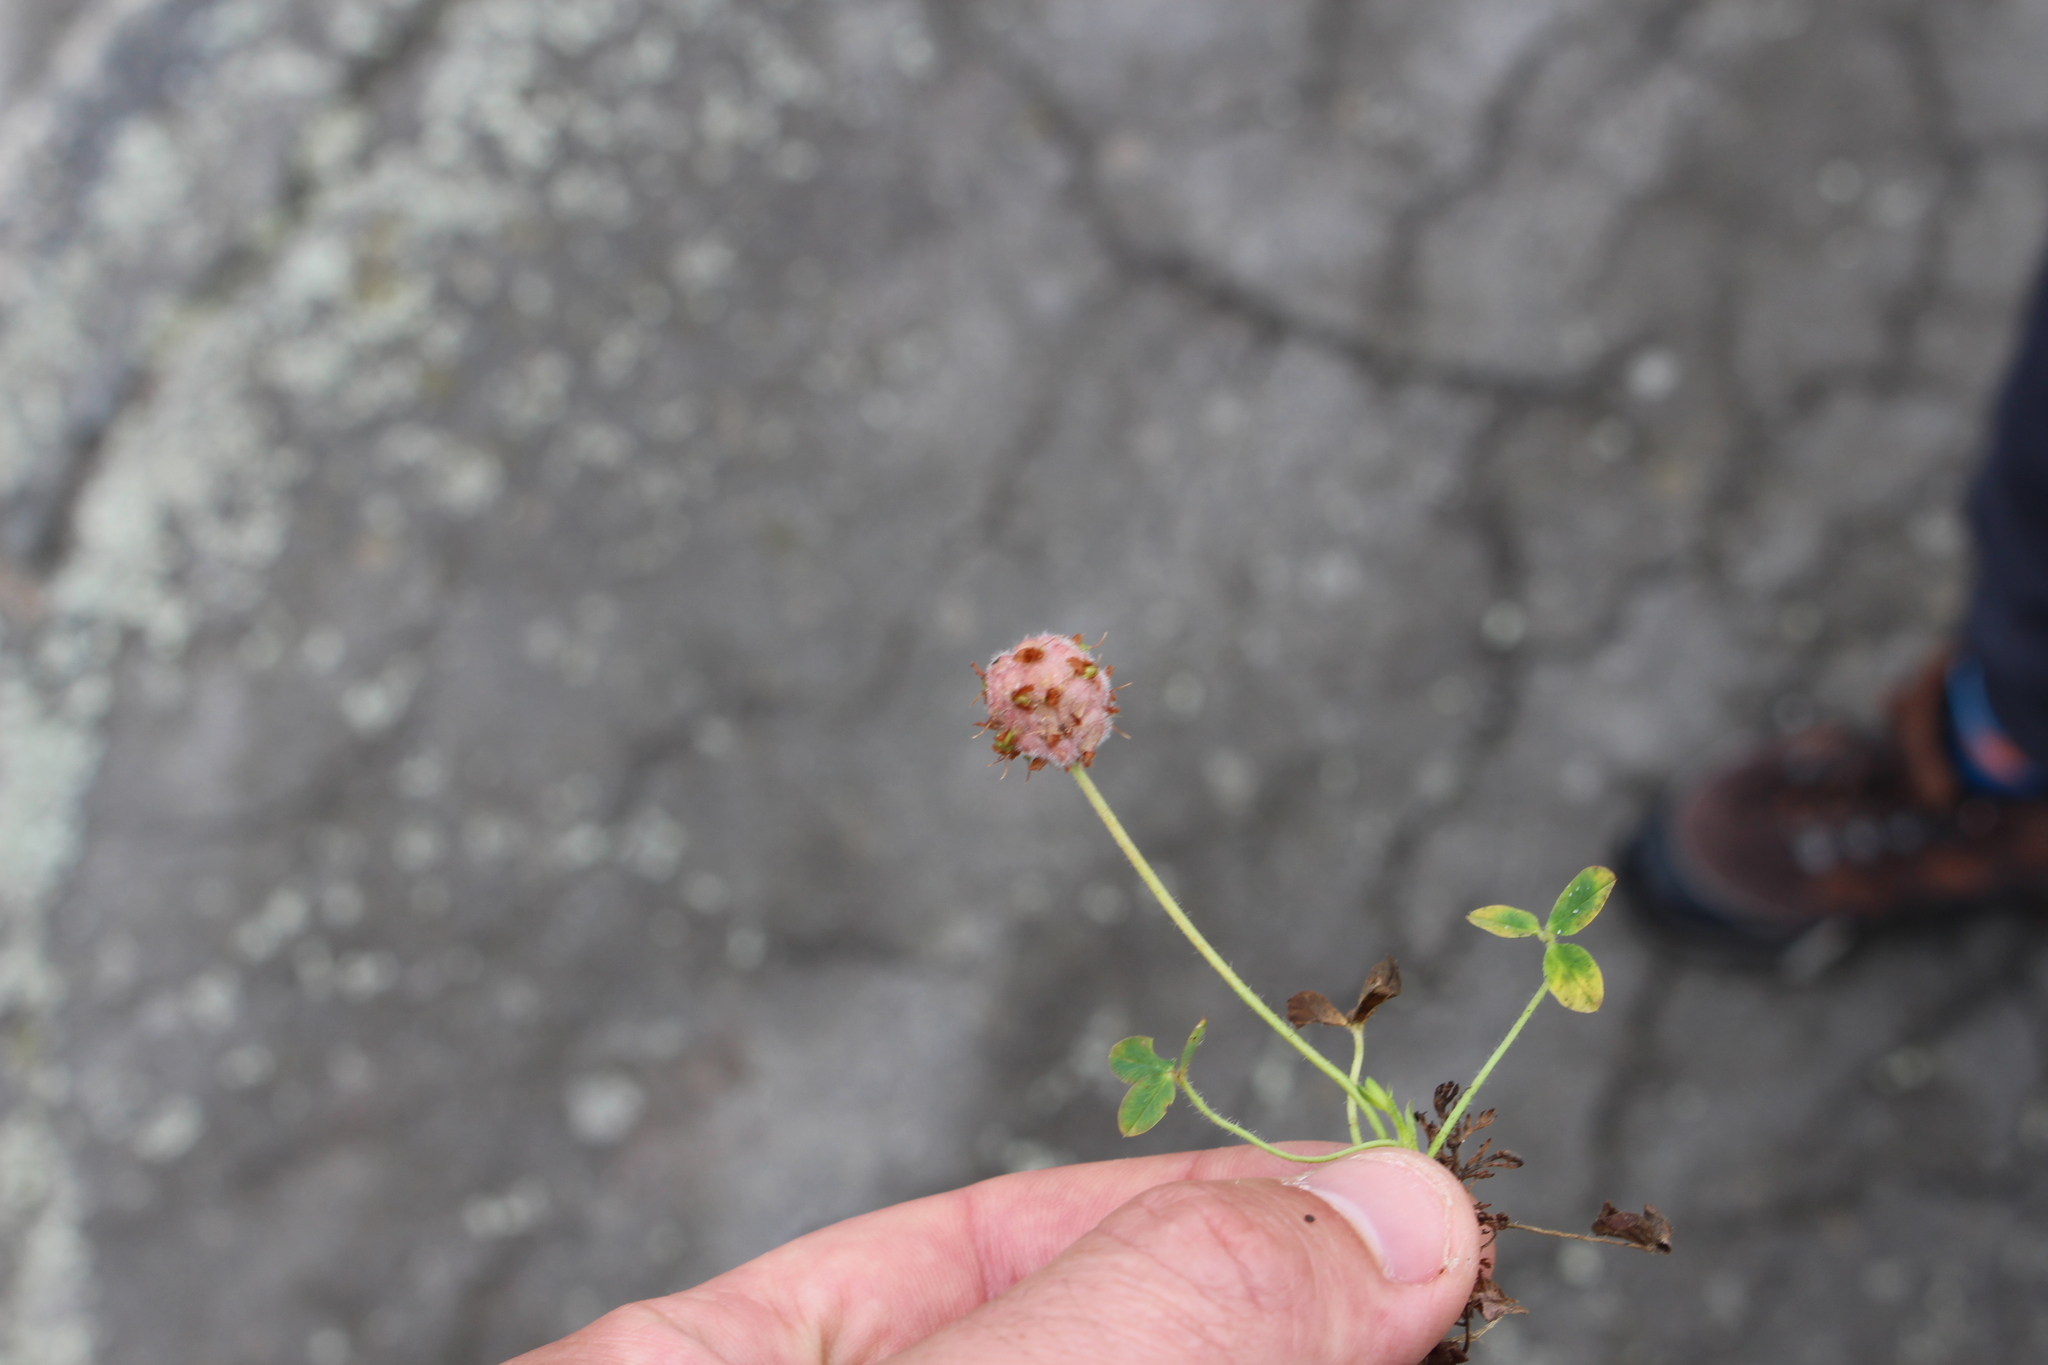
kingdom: Plantae
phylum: Tracheophyta
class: Magnoliopsida
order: Fabales
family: Fabaceae
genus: Trifolium
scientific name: Trifolium fragiferum
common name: Strawberry clover
